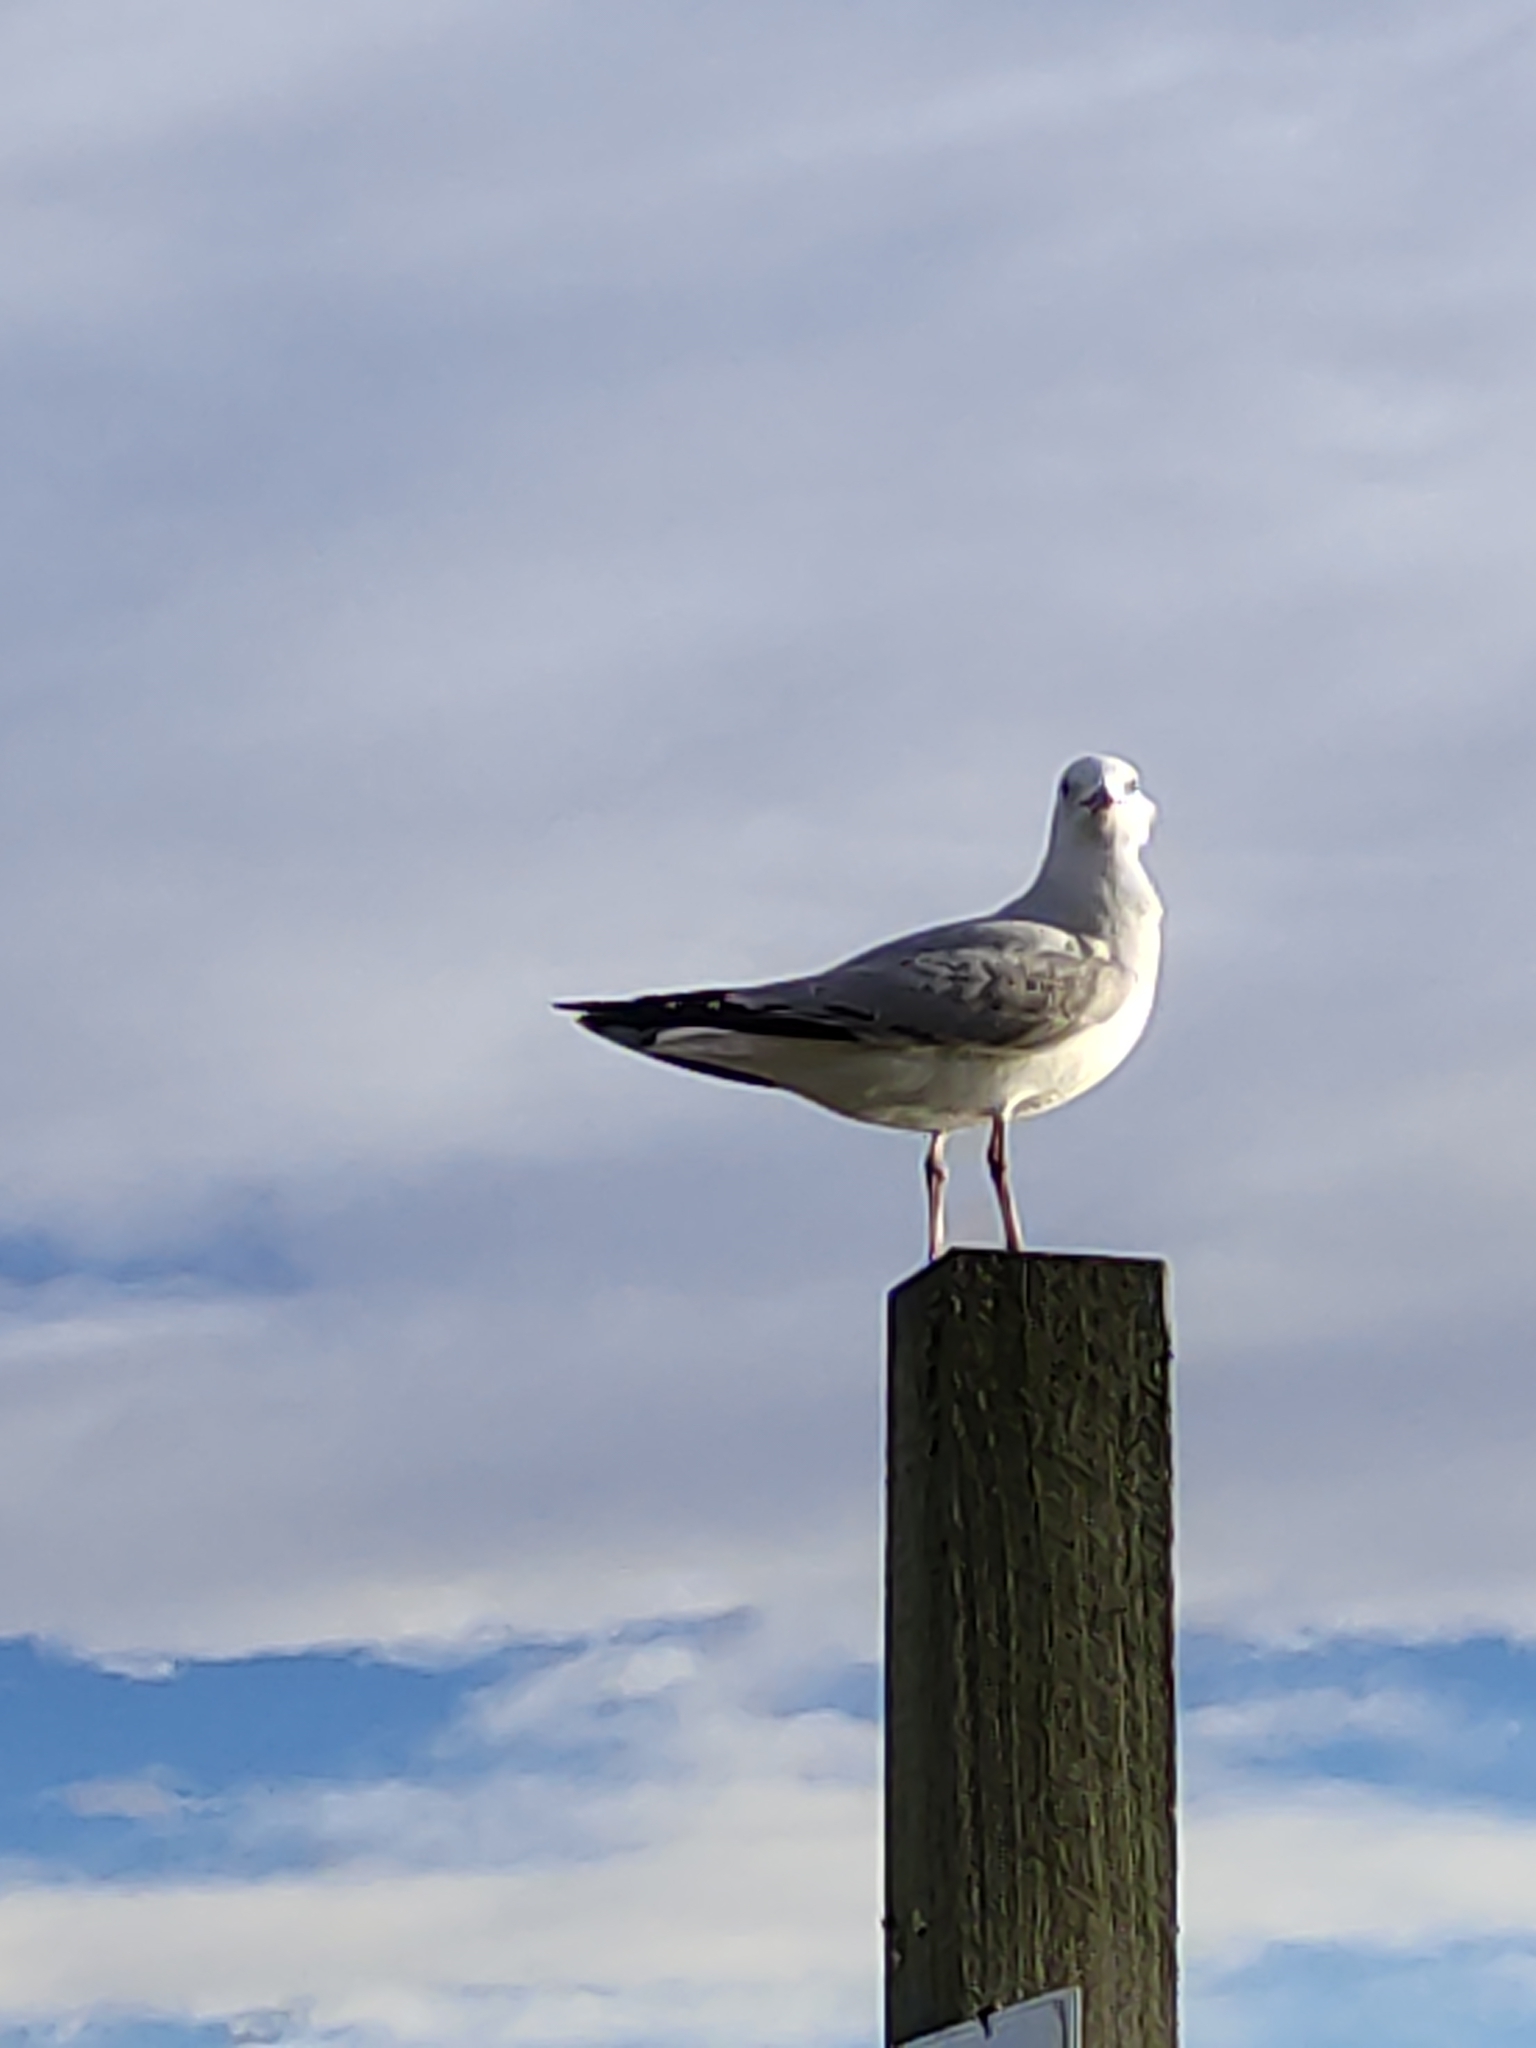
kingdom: Animalia
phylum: Chordata
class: Aves
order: Charadriiformes
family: Laridae
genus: Chroicocephalus
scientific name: Chroicocephalus novaehollandiae
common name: Silver gull
